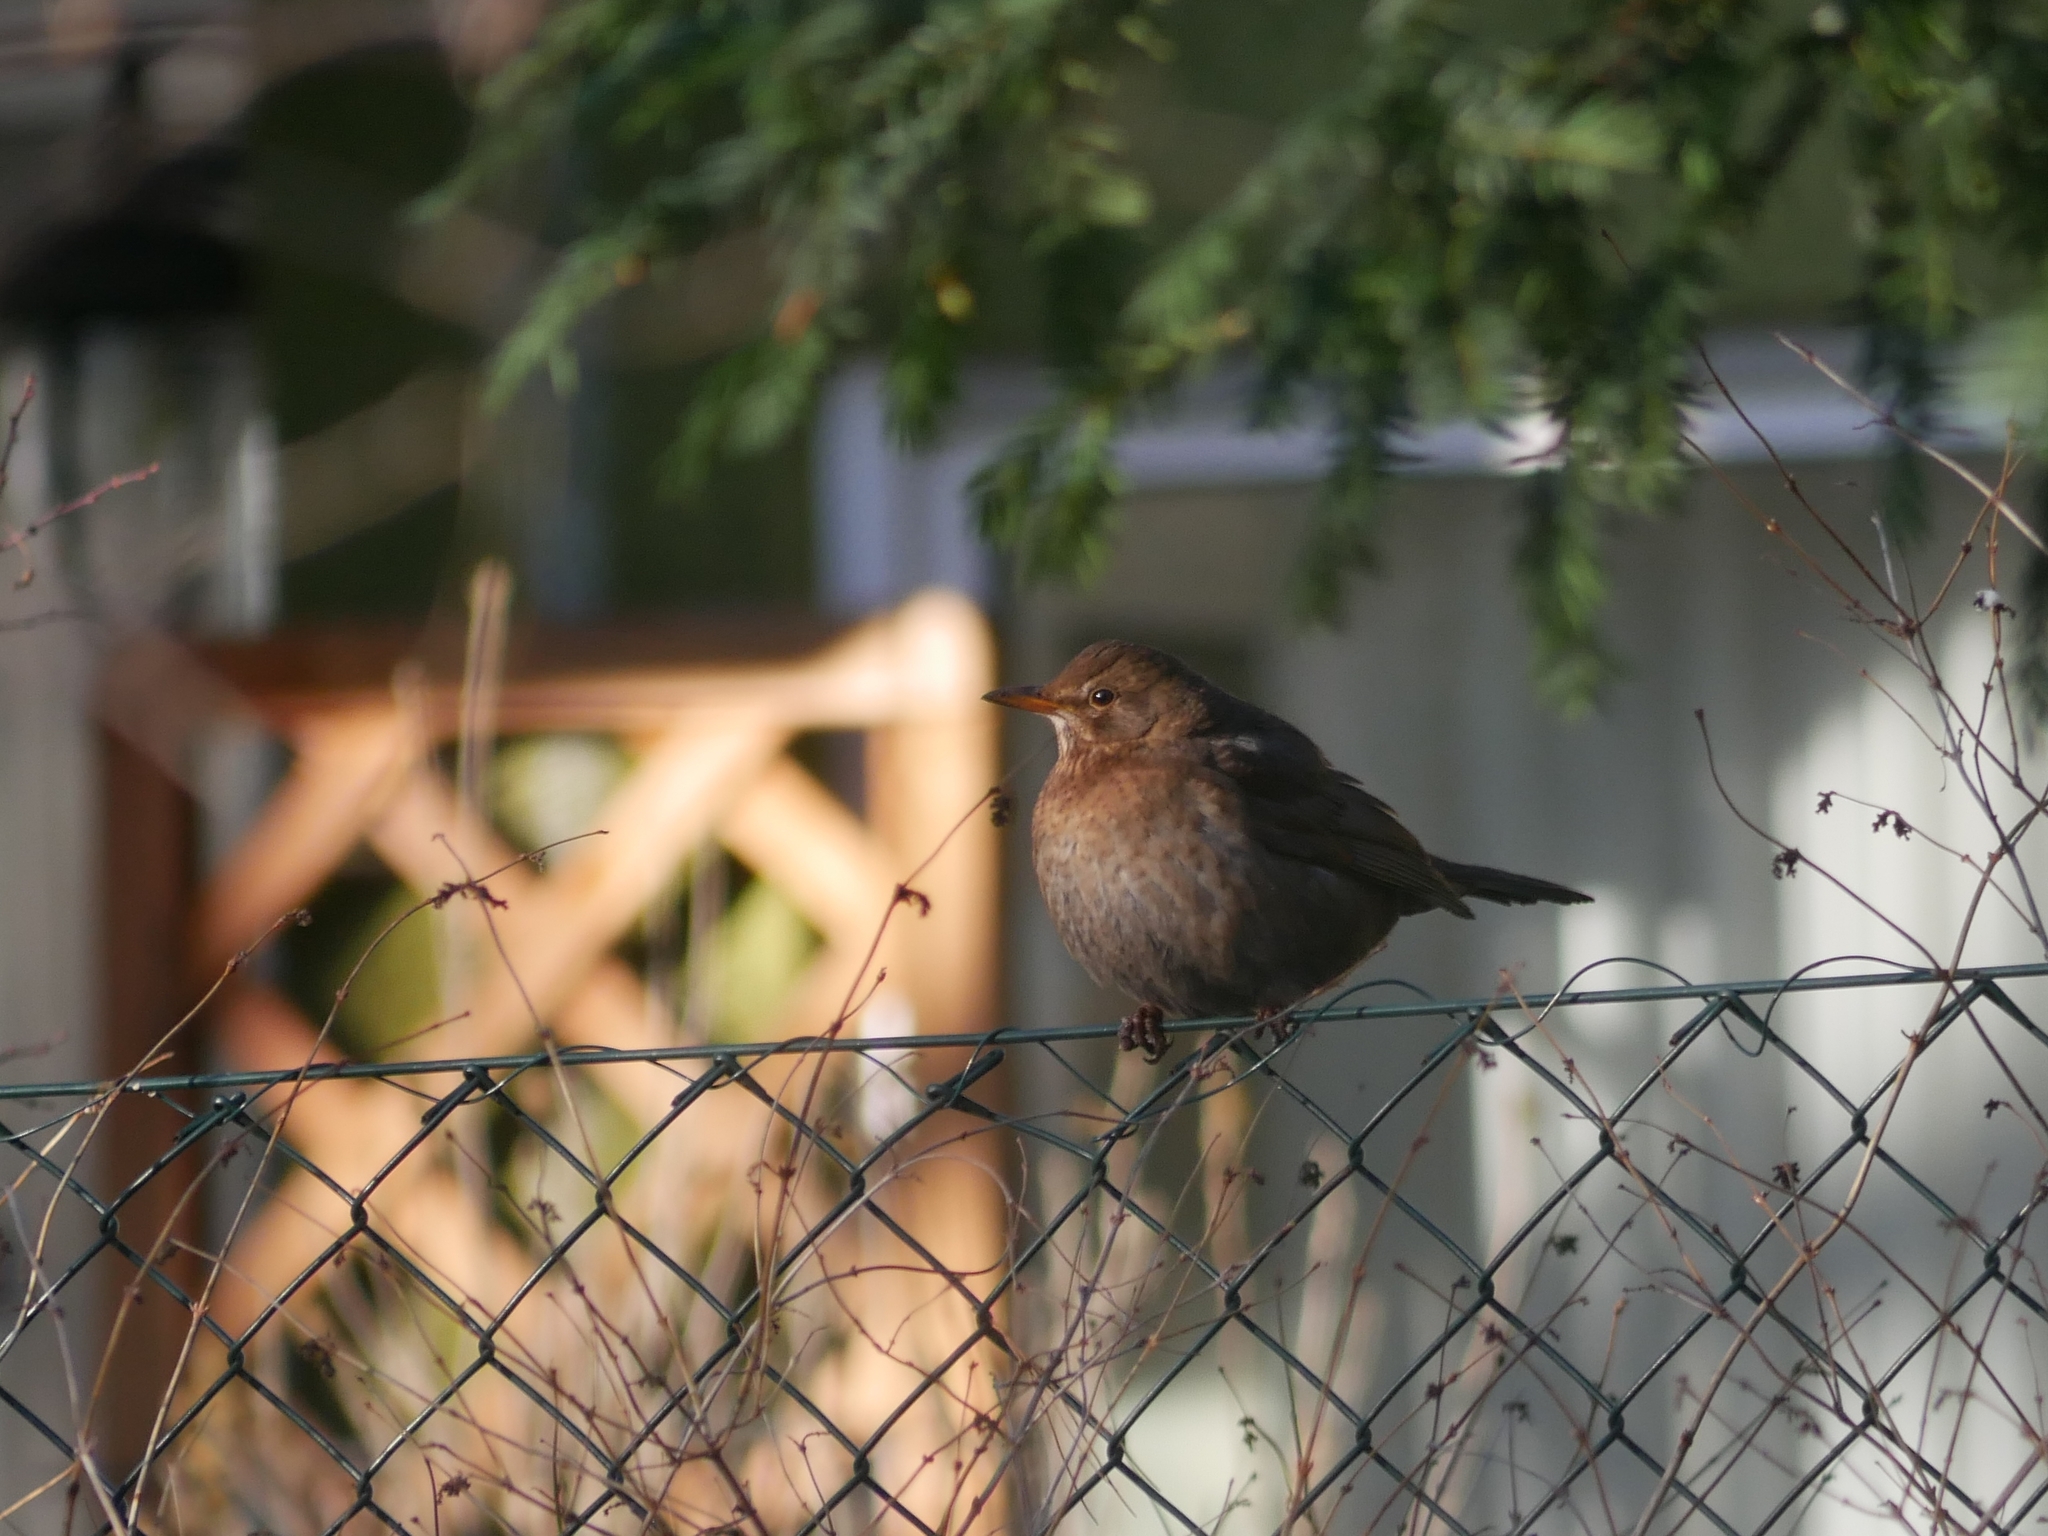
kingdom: Animalia
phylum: Chordata
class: Aves
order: Passeriformes
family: Turdidae
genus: Turdus
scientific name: Turdus merula
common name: Common blackbird
